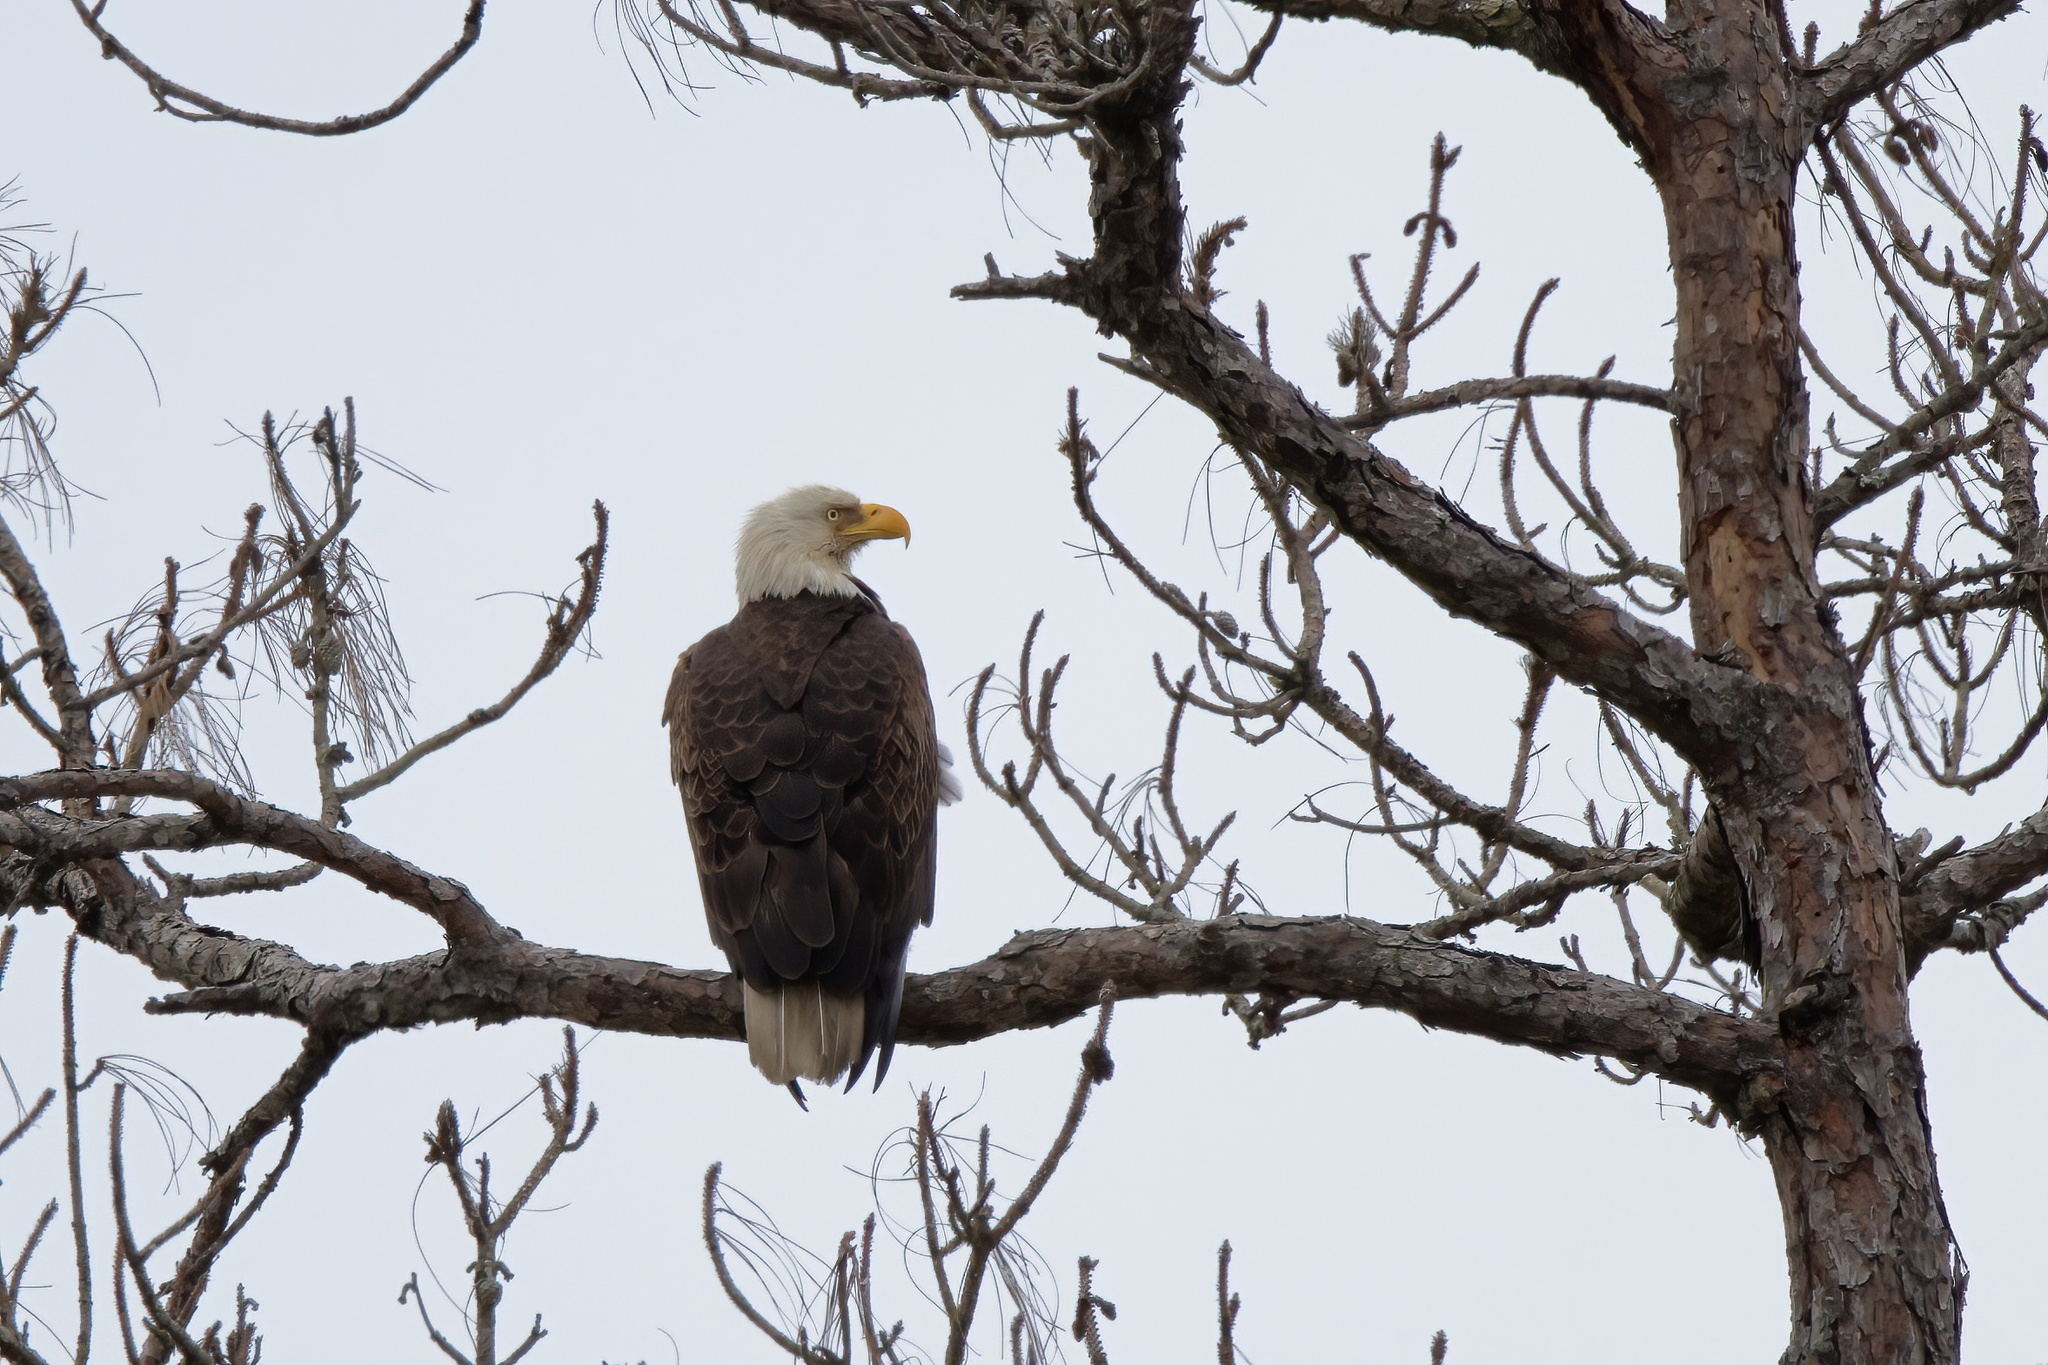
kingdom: Animalia
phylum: Chordata
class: Aves
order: Accipitriformes
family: Accipitridae
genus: Haliaeetus
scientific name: Haliaeetus leucocephalus
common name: Bald eagle
